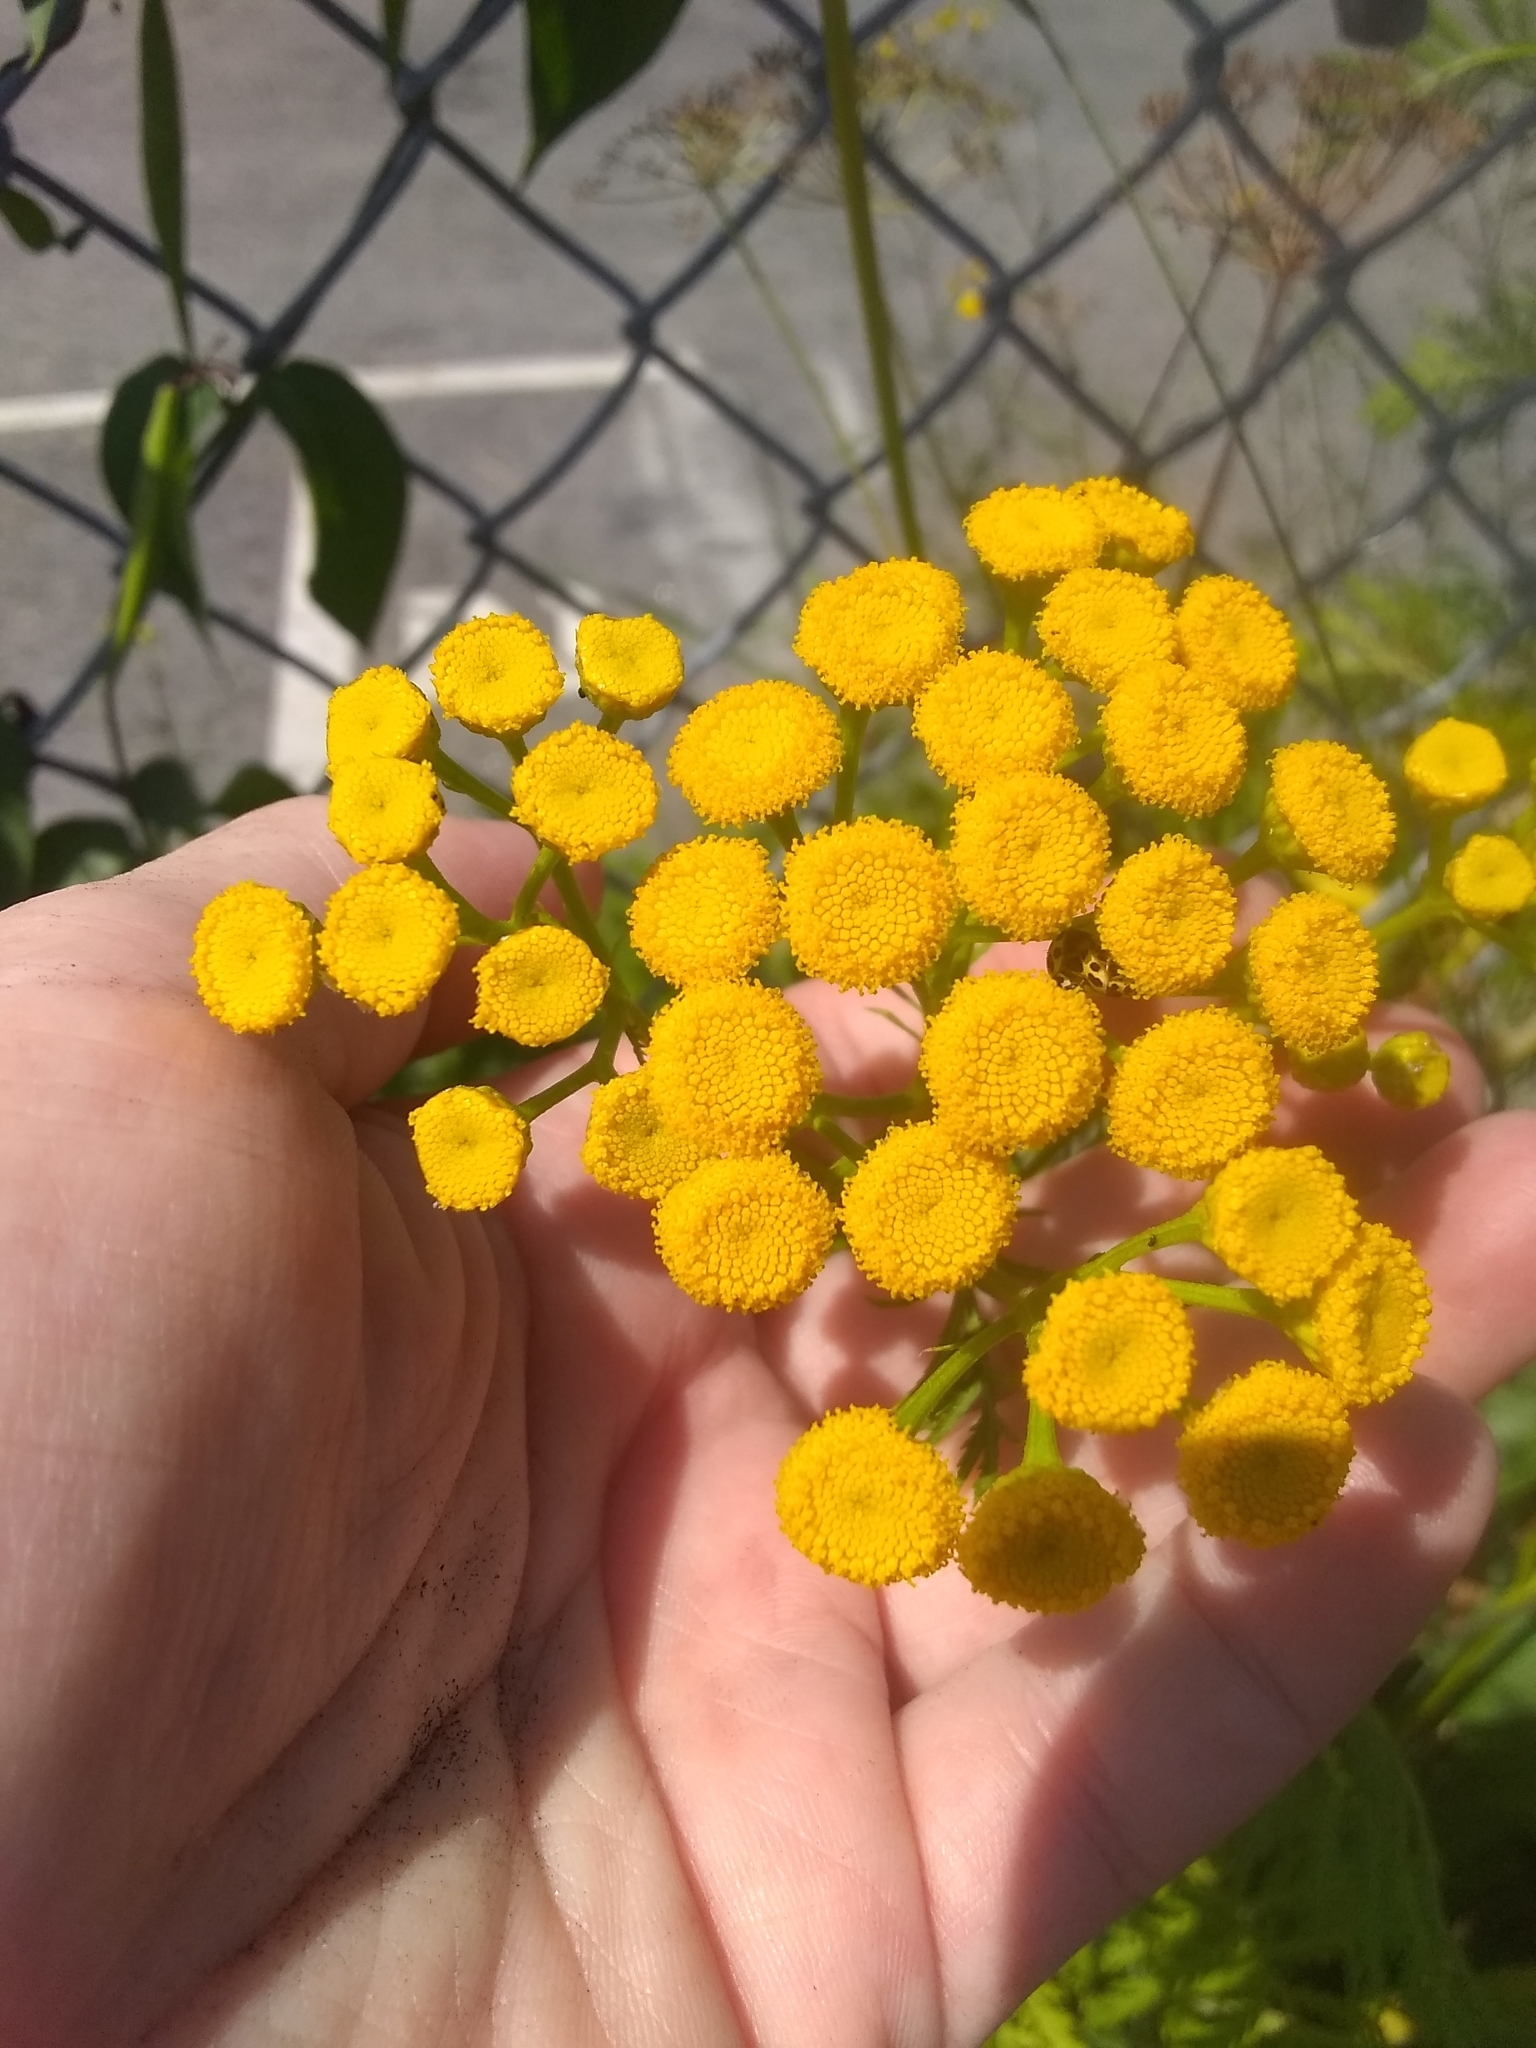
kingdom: Plantae
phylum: Tracheophyta
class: Magnoliopsida
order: Asterales
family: Asteraceae
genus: Tanacetum
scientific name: Tanacetum vulgare
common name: Common tansy
